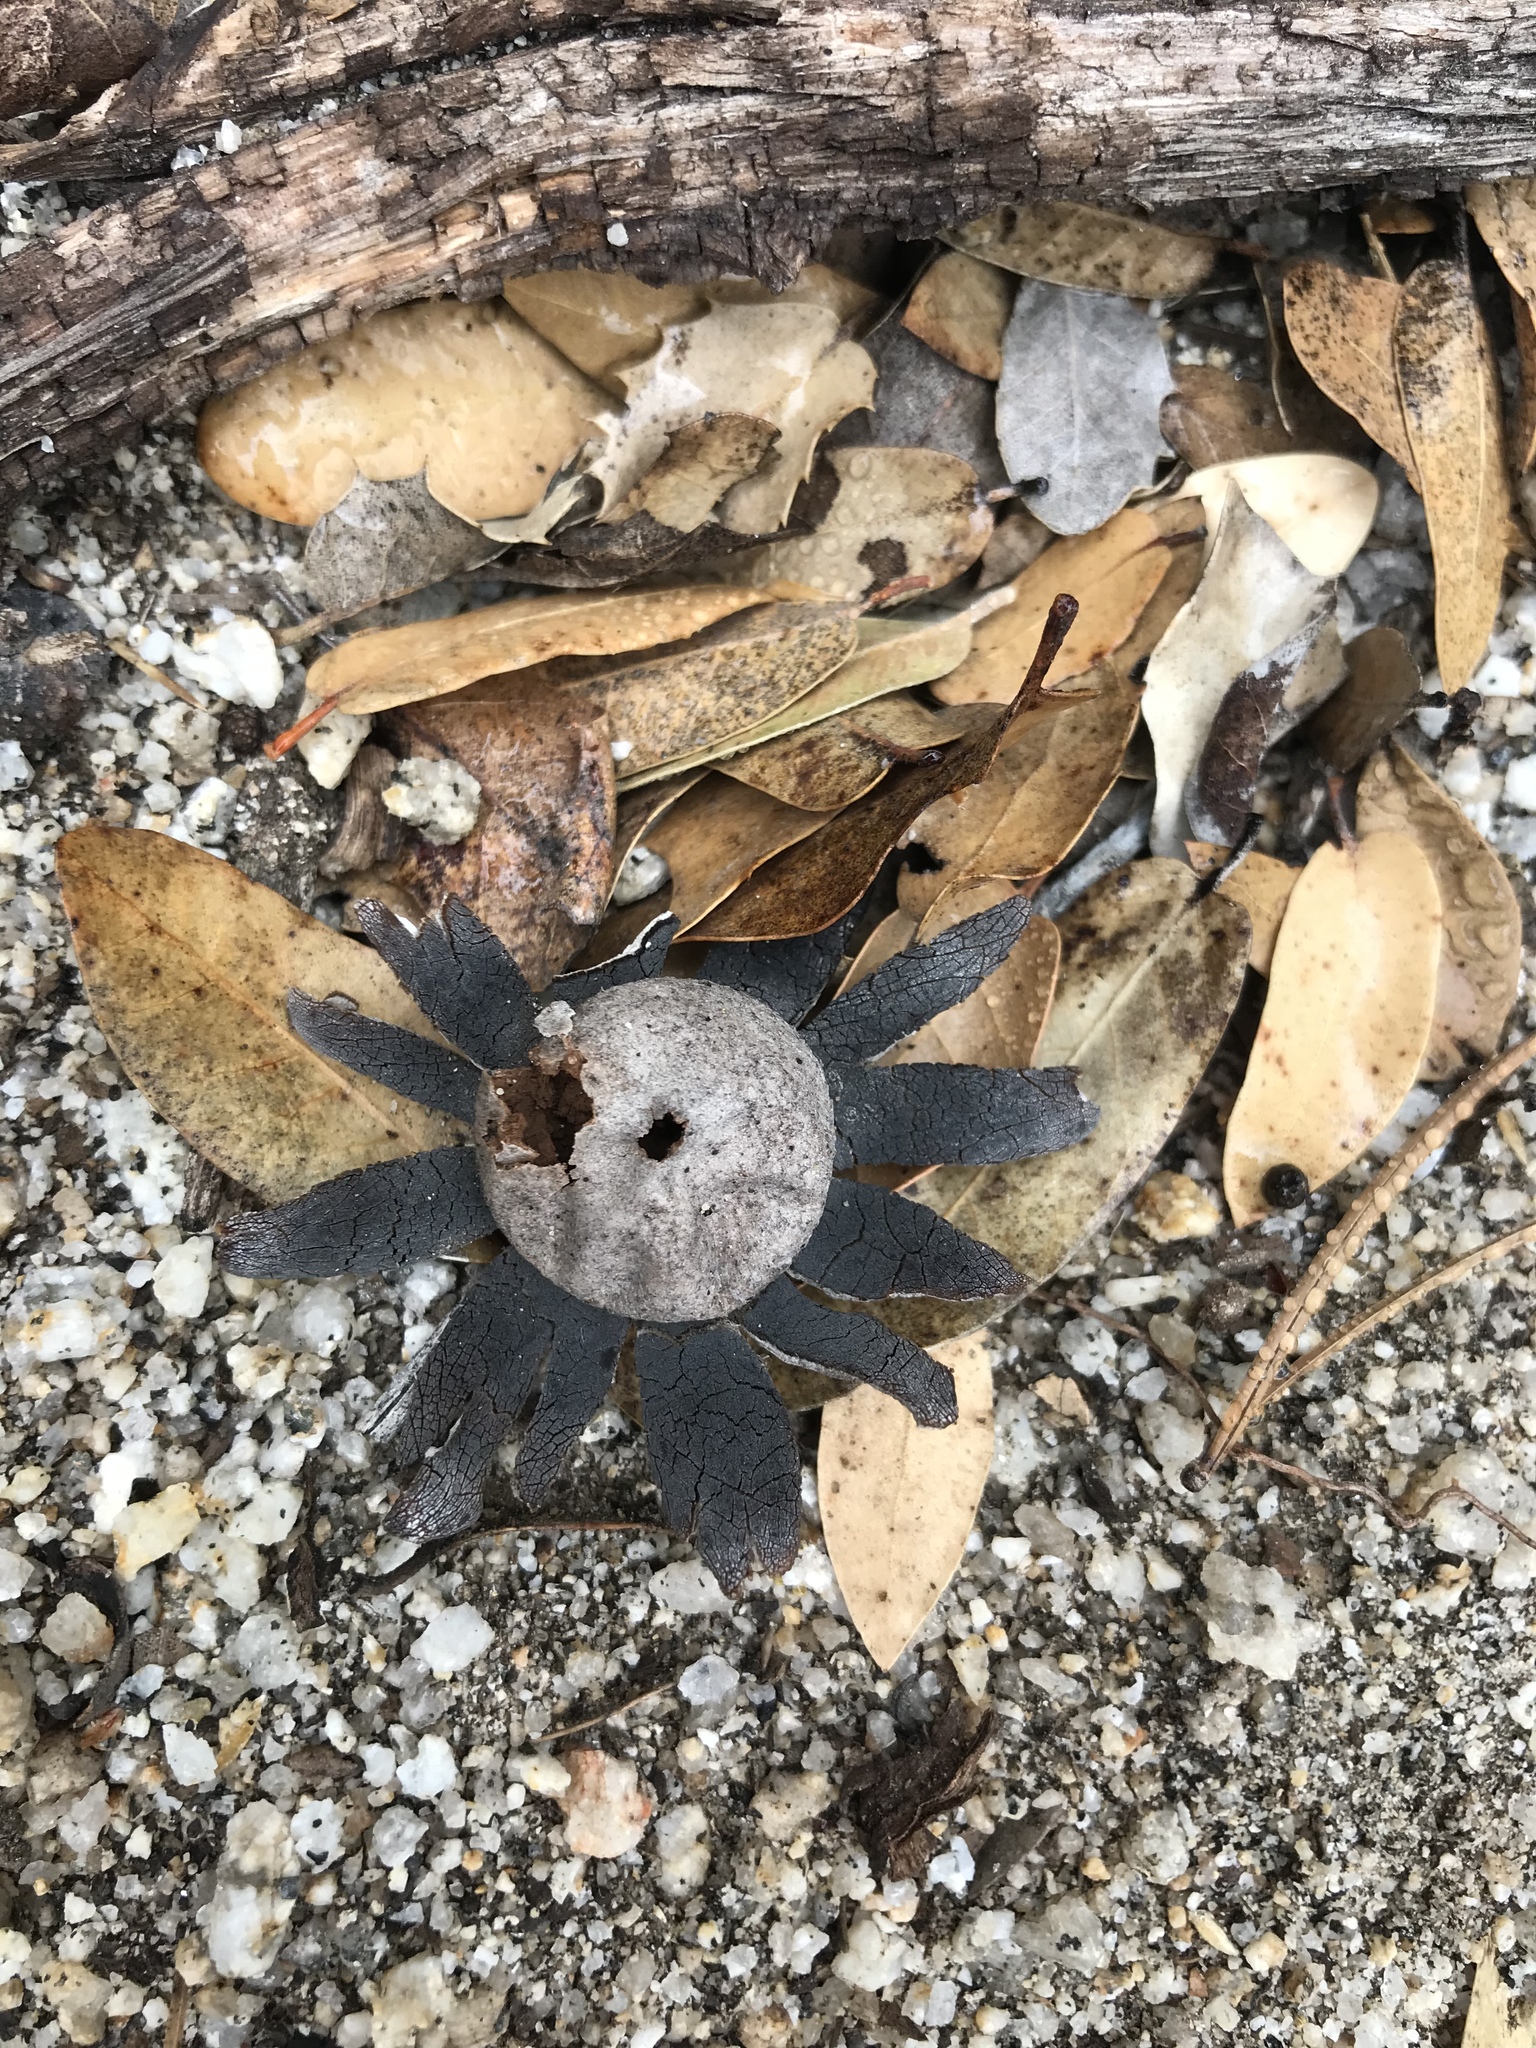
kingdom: Fungi
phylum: Basidiomycota
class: Agaricomycetes
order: Boletales
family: Diplocystidiaceae
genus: Astraeus
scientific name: Astraeus hygrometricus
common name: Barometer earthstar
